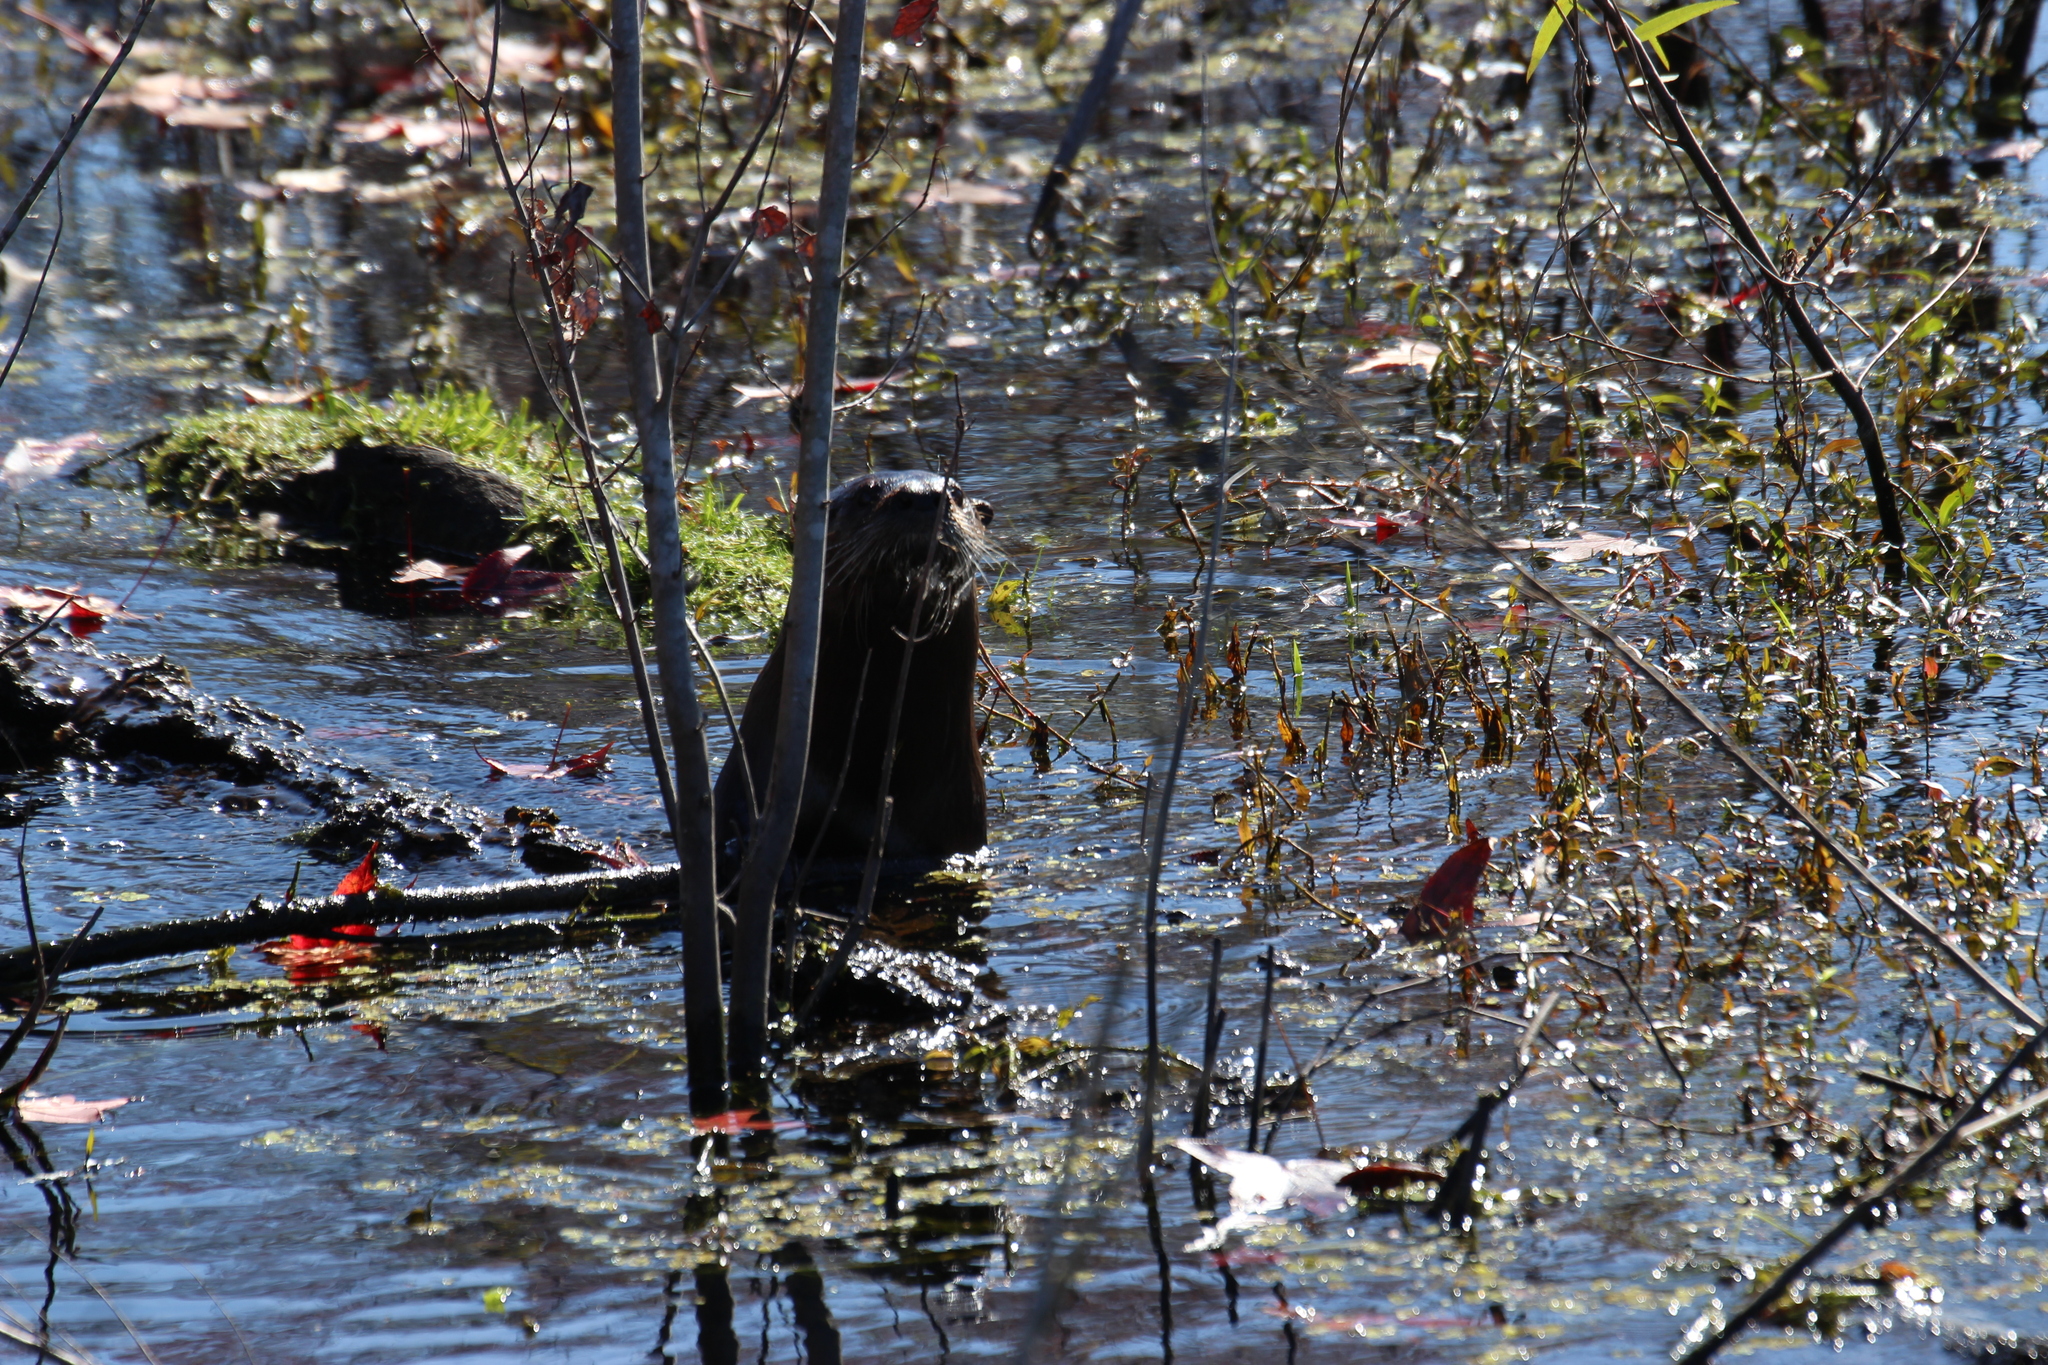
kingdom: Animalia
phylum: Chordata
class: Mammalia
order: Carnivora
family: Mustelidae
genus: Lontra
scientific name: Lontra canadensis
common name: North american river otter
